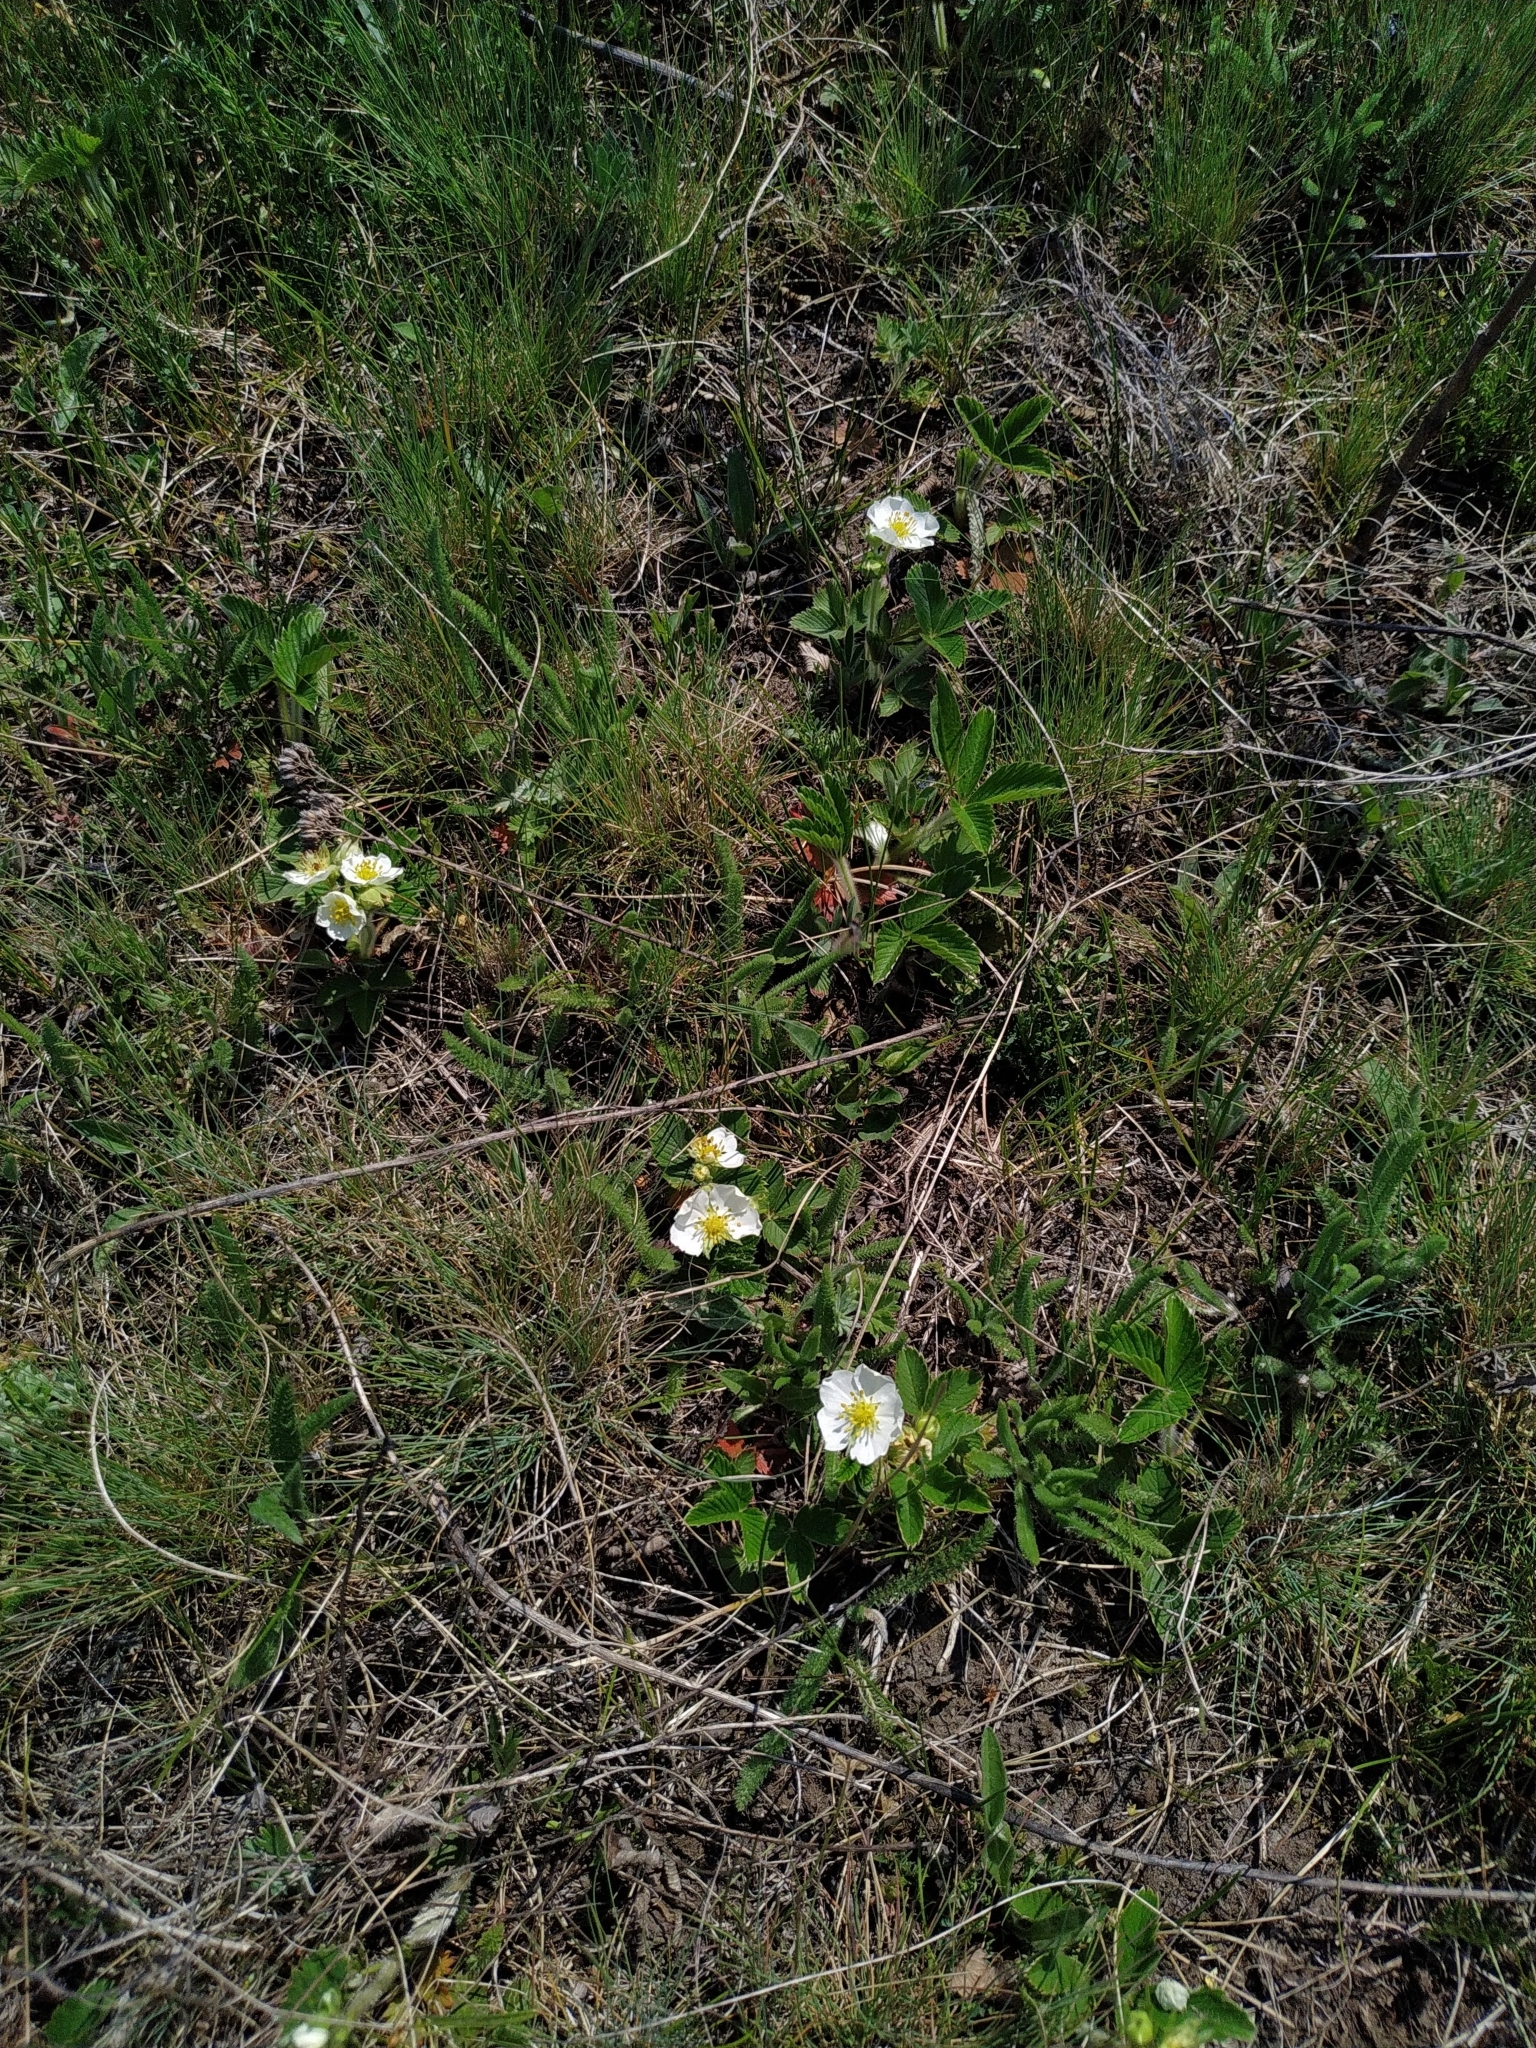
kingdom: Plantae
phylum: Tracheophyta
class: Magnoliopsida
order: Rosales
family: Rosaceae
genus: Fragaria
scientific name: Fragaria viridis
